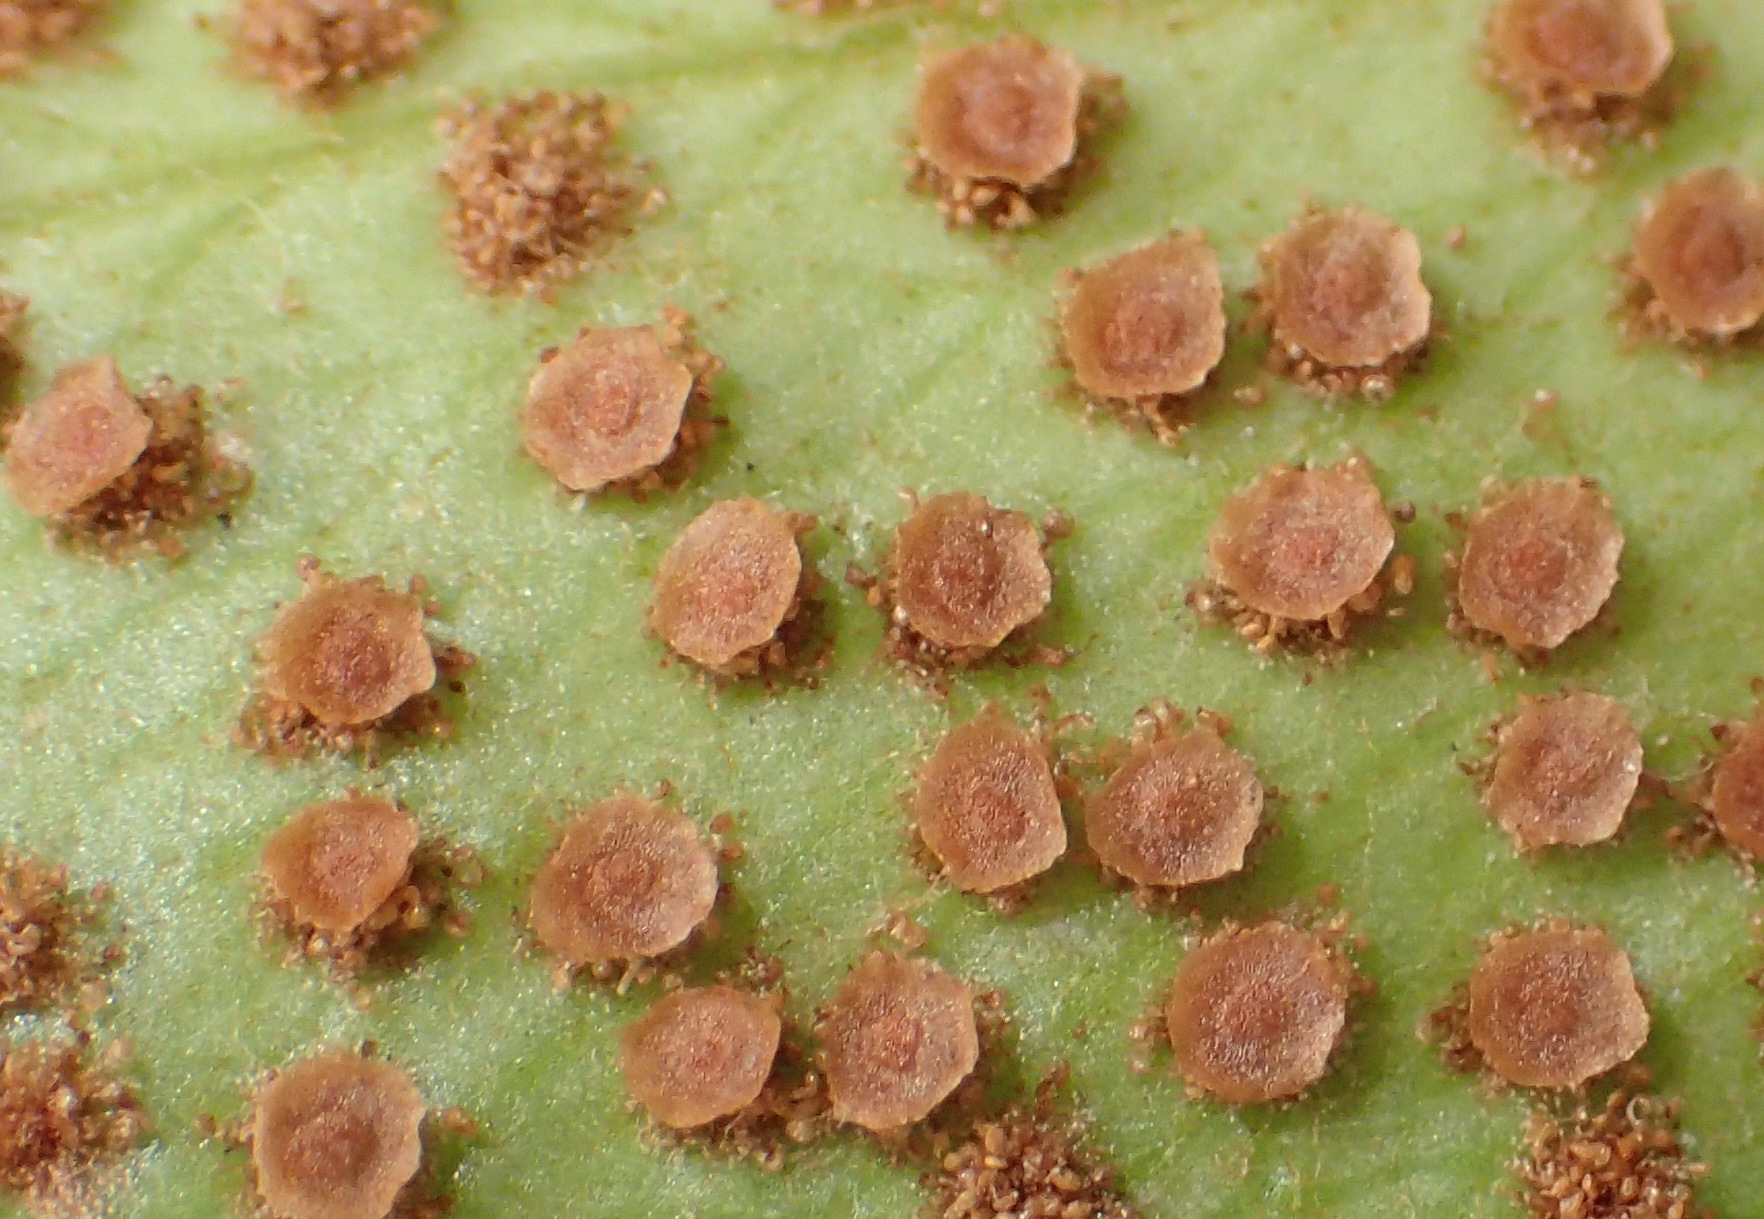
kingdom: Plantae
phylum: Tracheophyta
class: Polypodiopsida
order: Polypodiales
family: Dryopteridaceae
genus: Cyrtomium
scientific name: Cyrtomium falcatum
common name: House holly-fern
